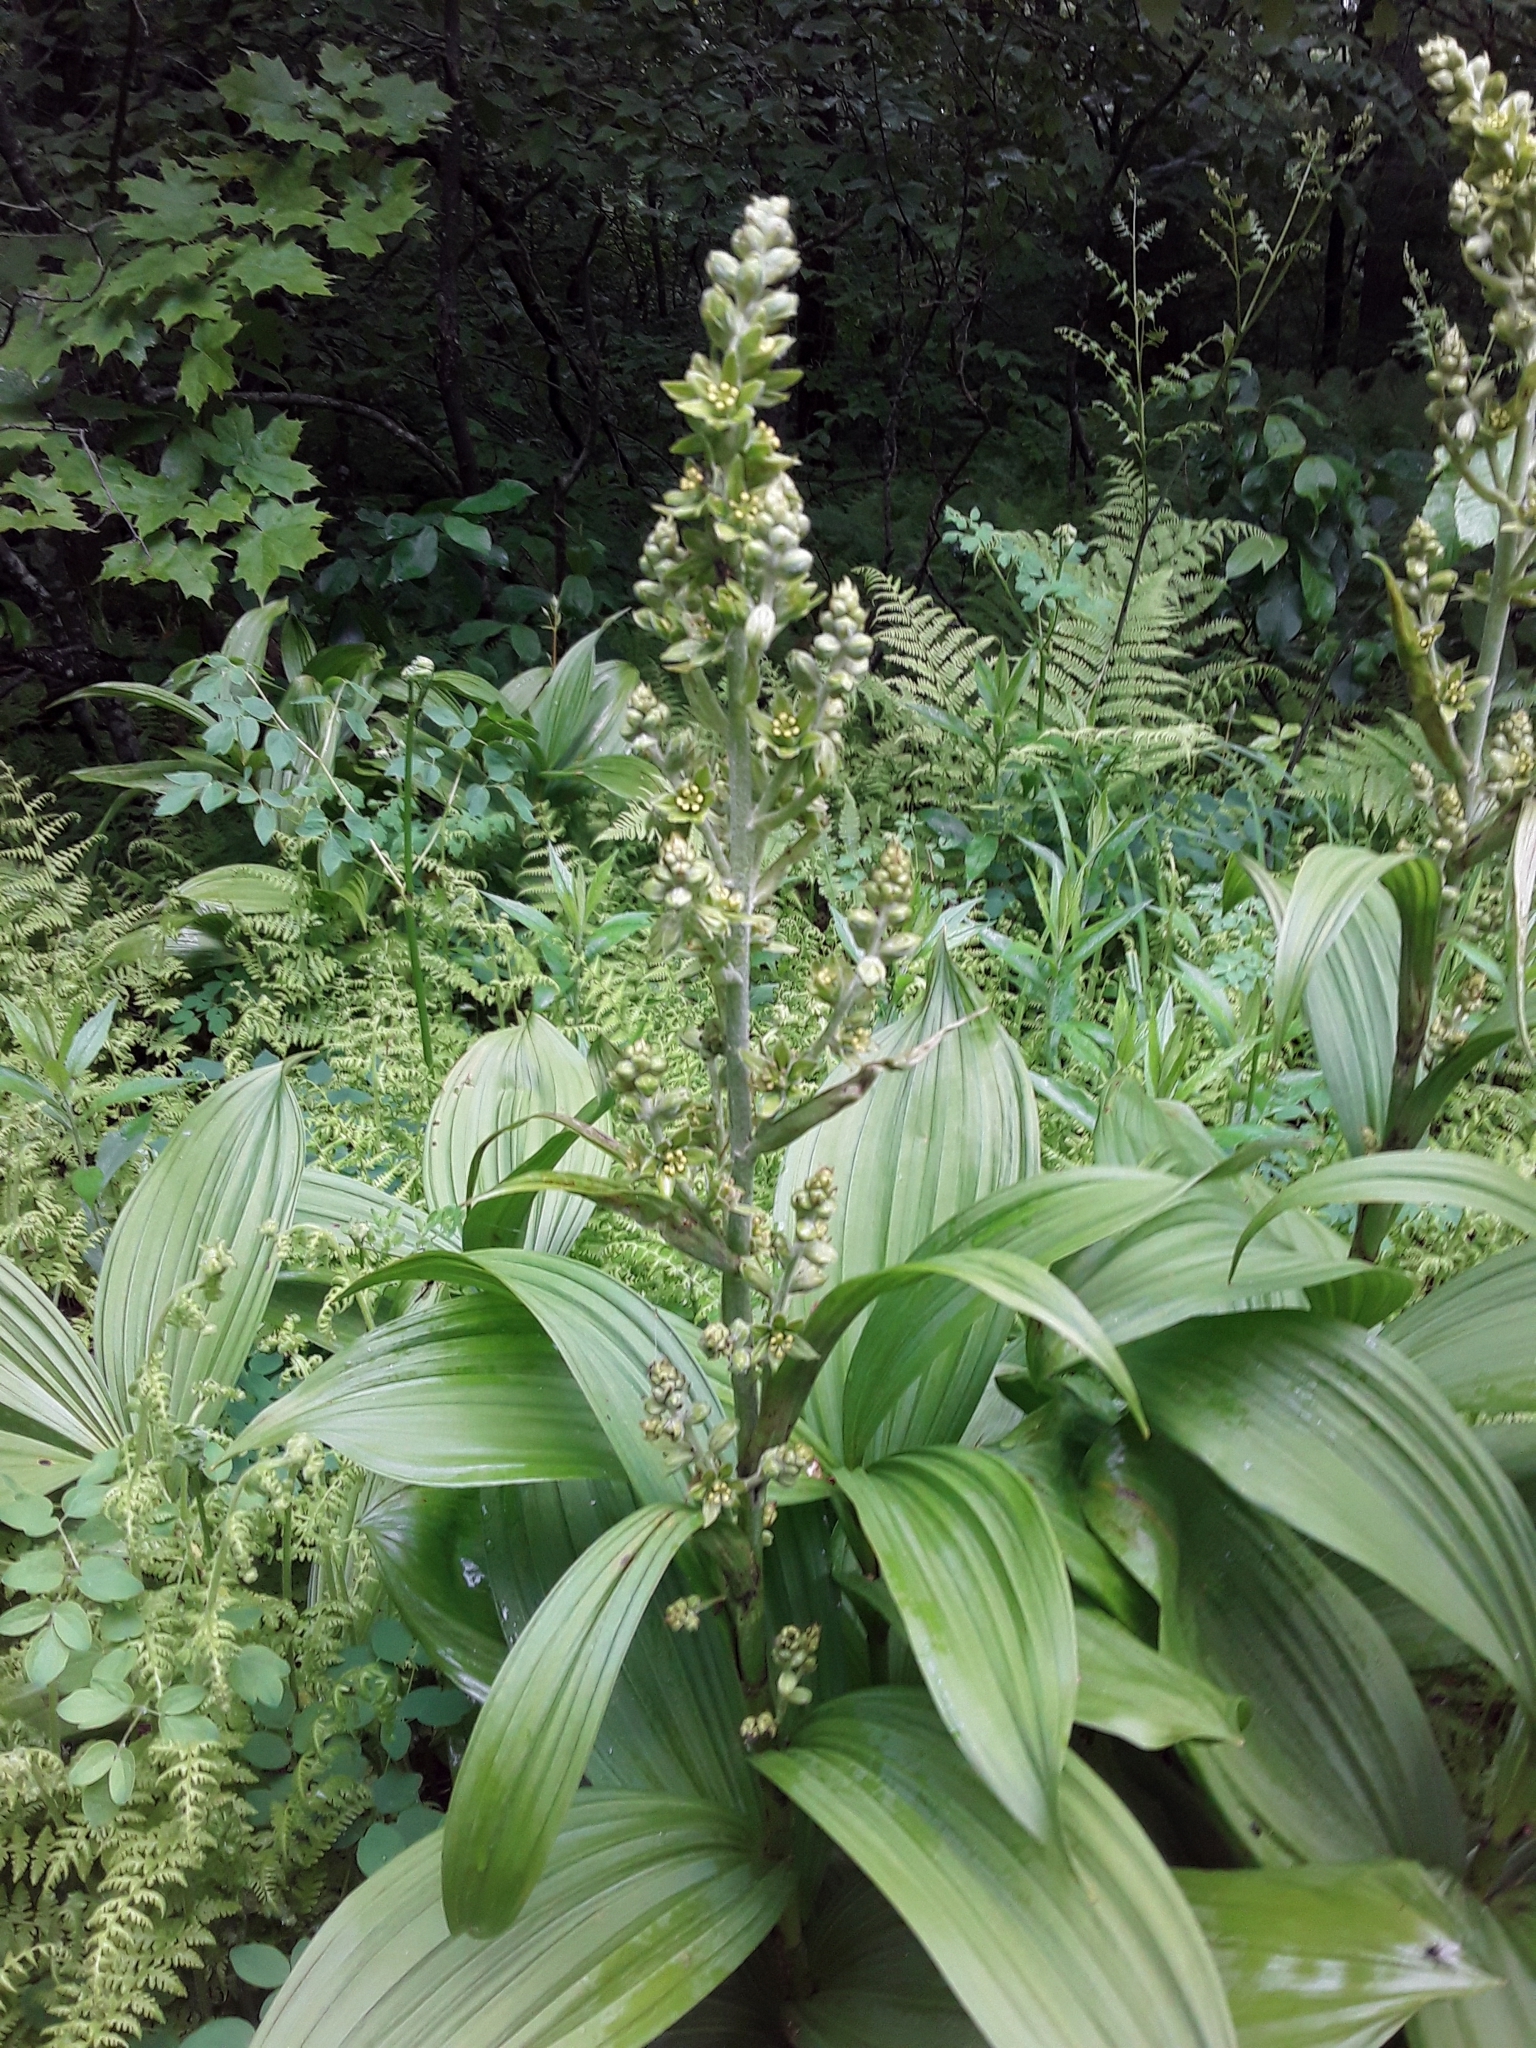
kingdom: Plantae
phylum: Tracheophyta
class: Liliopsida
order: Liliales
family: Melanthiaceae
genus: Veratrum
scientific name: Veratrum viride
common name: American false hellebore
